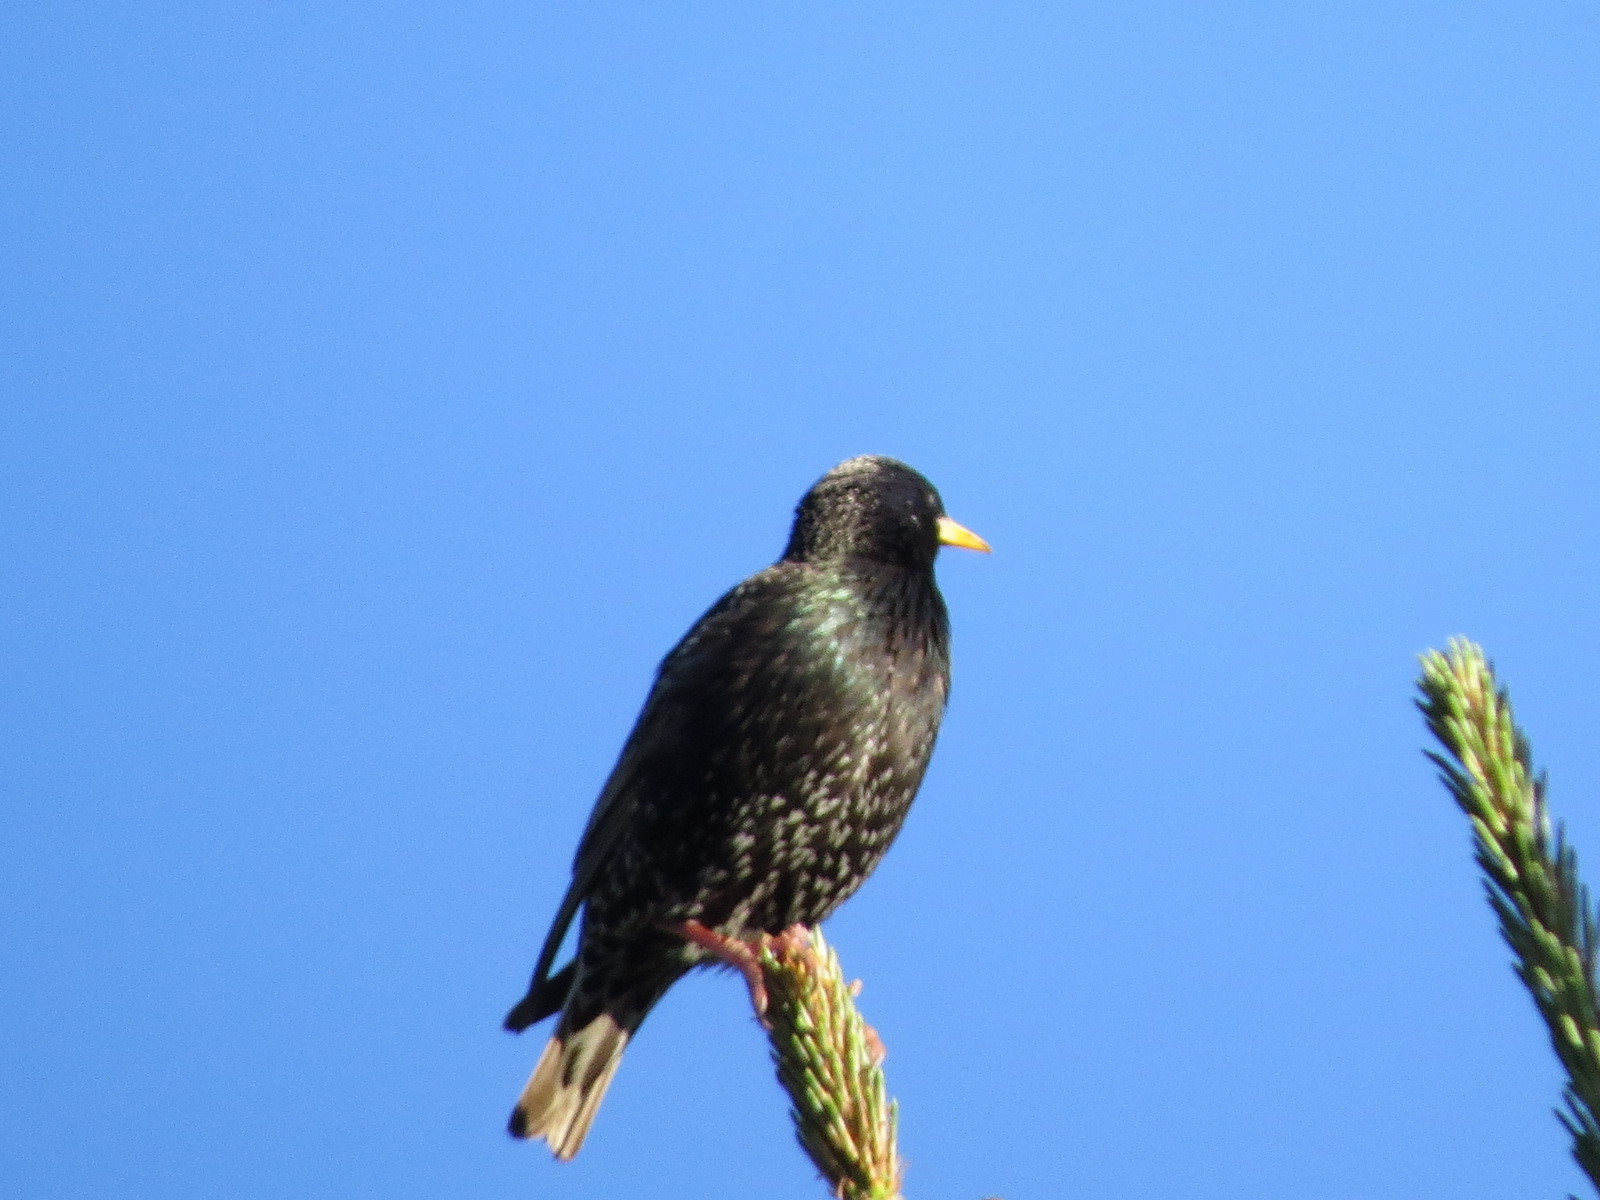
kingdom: Animalia
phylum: Chordata
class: Aves
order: Passeriformes
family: Sturnidae
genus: Sturnus
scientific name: Sturnus vulgaris
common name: Common starling
